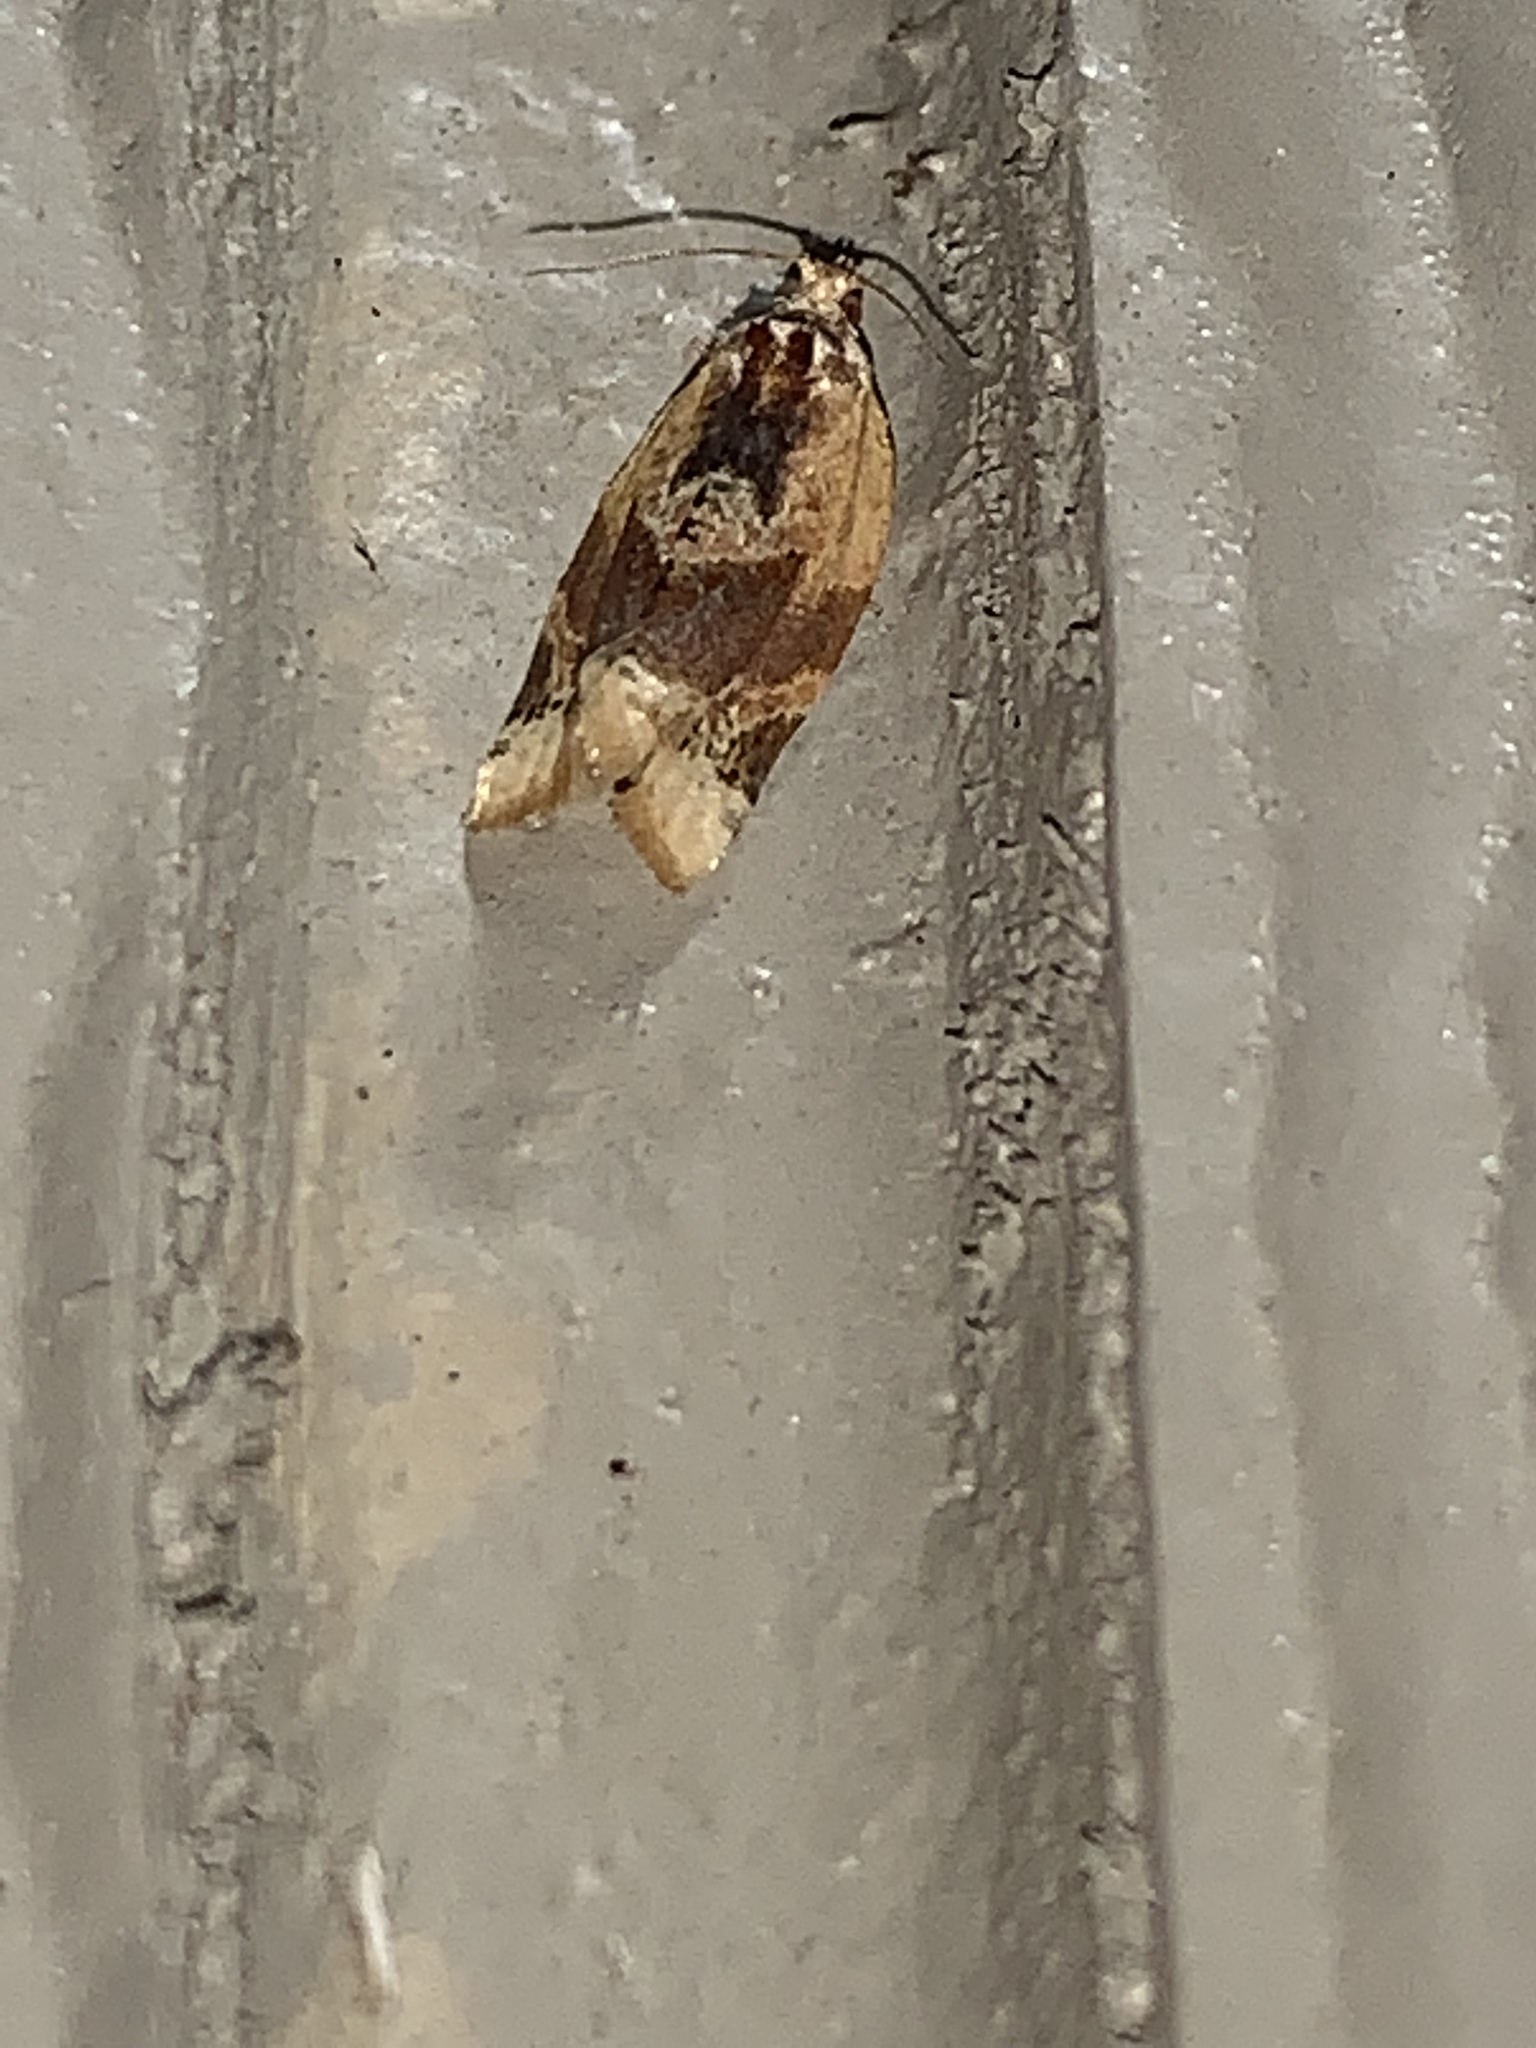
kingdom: Animalia
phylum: Arthropoda
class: Insecta
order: Lepidoptera
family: Tortricidae
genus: Argyrotaenia
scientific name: Argyrotaenia velutinana
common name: Red-banded leafroller moth
